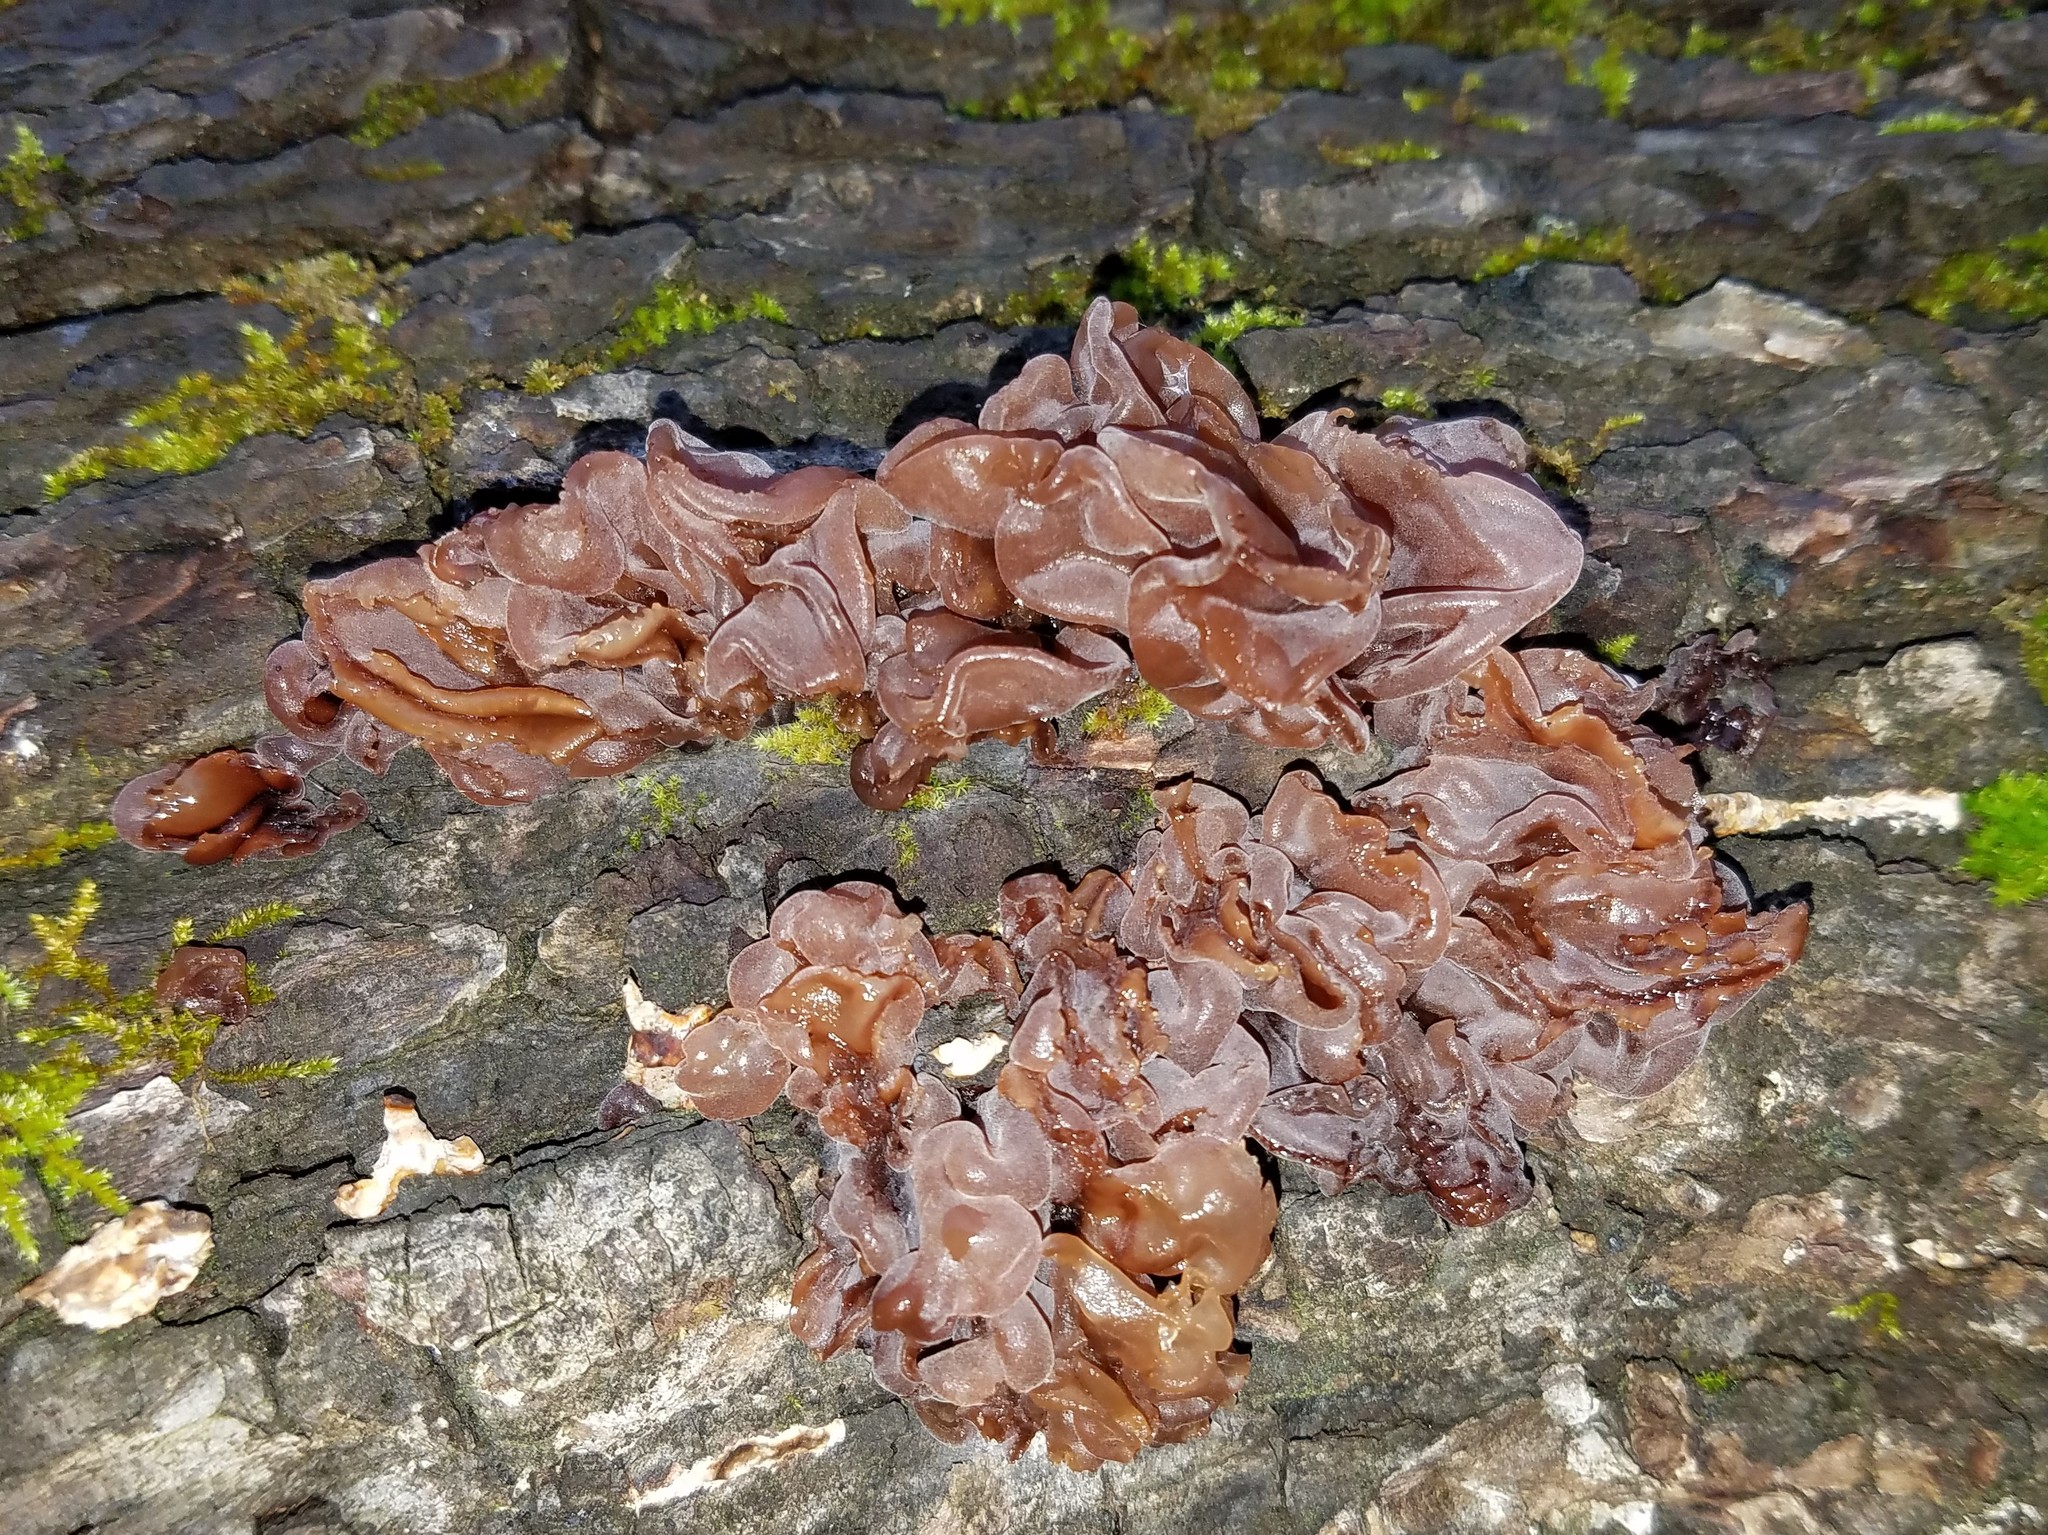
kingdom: Fungi
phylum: Basidiomycota
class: Tremellomycetes
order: Tremellales
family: Tremellaceae
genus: Phaeotremella
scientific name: Phaeotremella foliacea
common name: Leafy brain
